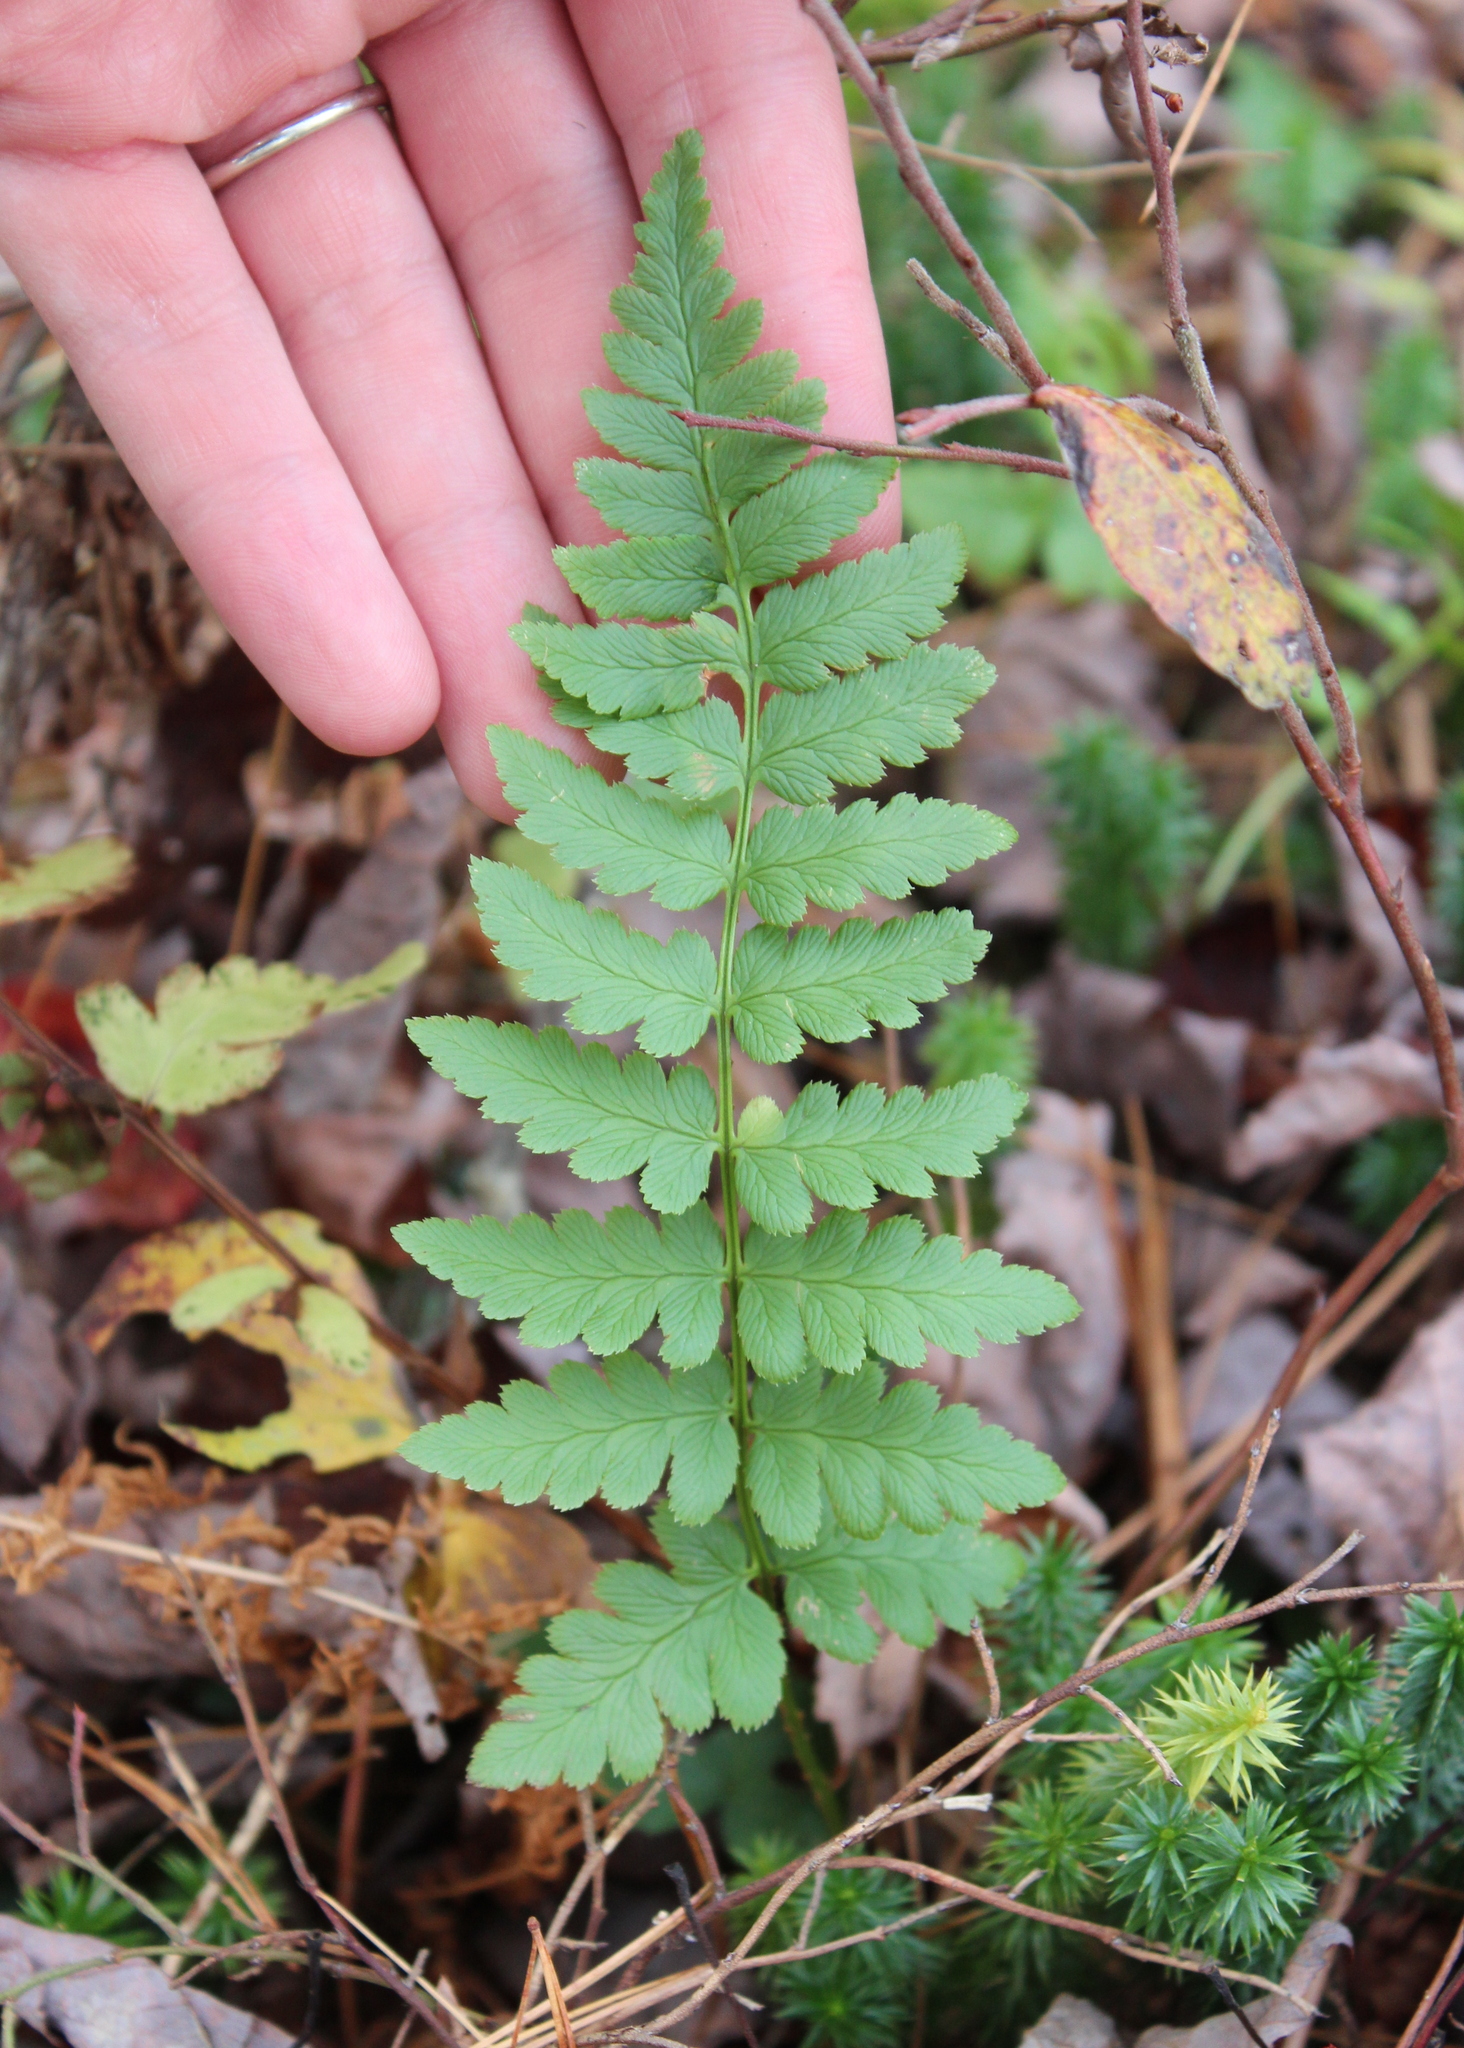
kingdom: Plantae
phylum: Tracheophyta
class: Polypodiopsida
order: Polypodiales
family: Dryopteridaceae
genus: Dryopteris
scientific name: Dryopteris cristata
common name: Crested wood fern
